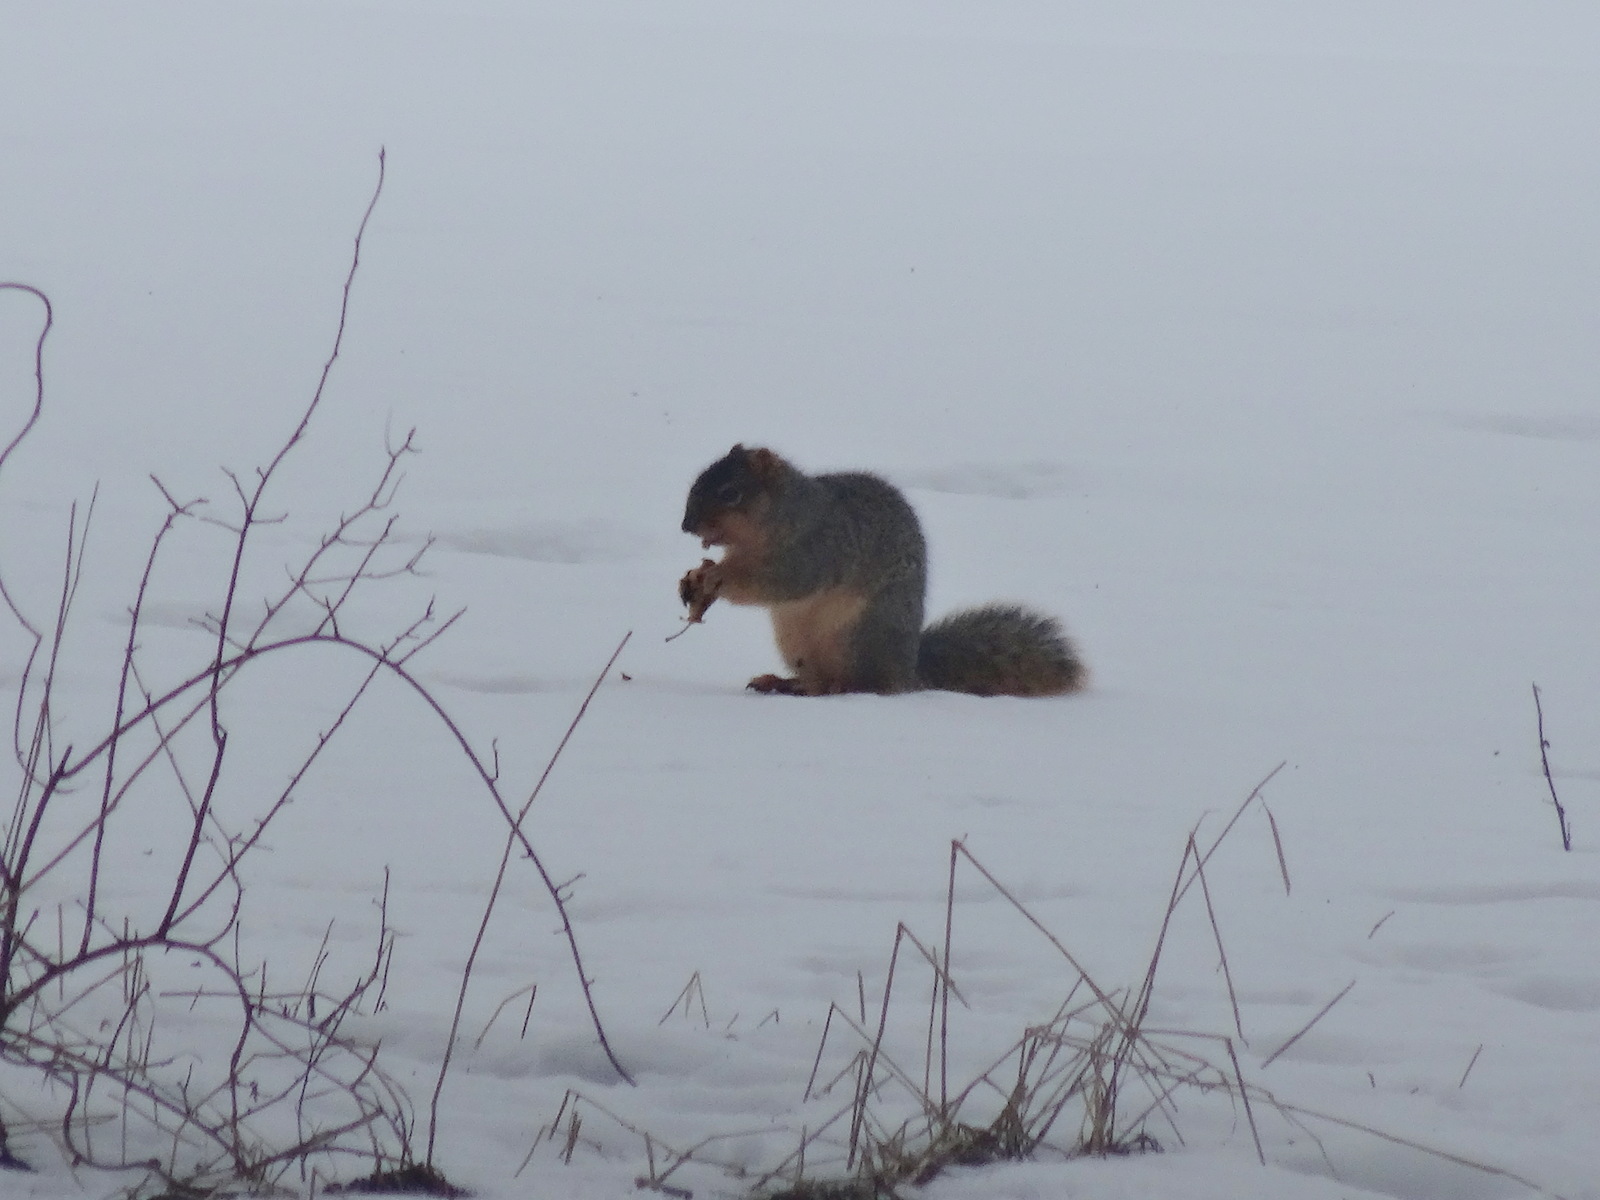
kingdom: Animalia
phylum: Chordata
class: Mammalia
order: Rodentia
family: Sciuridae
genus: Sciurus
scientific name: Sciurus niger
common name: Fox squirrel
